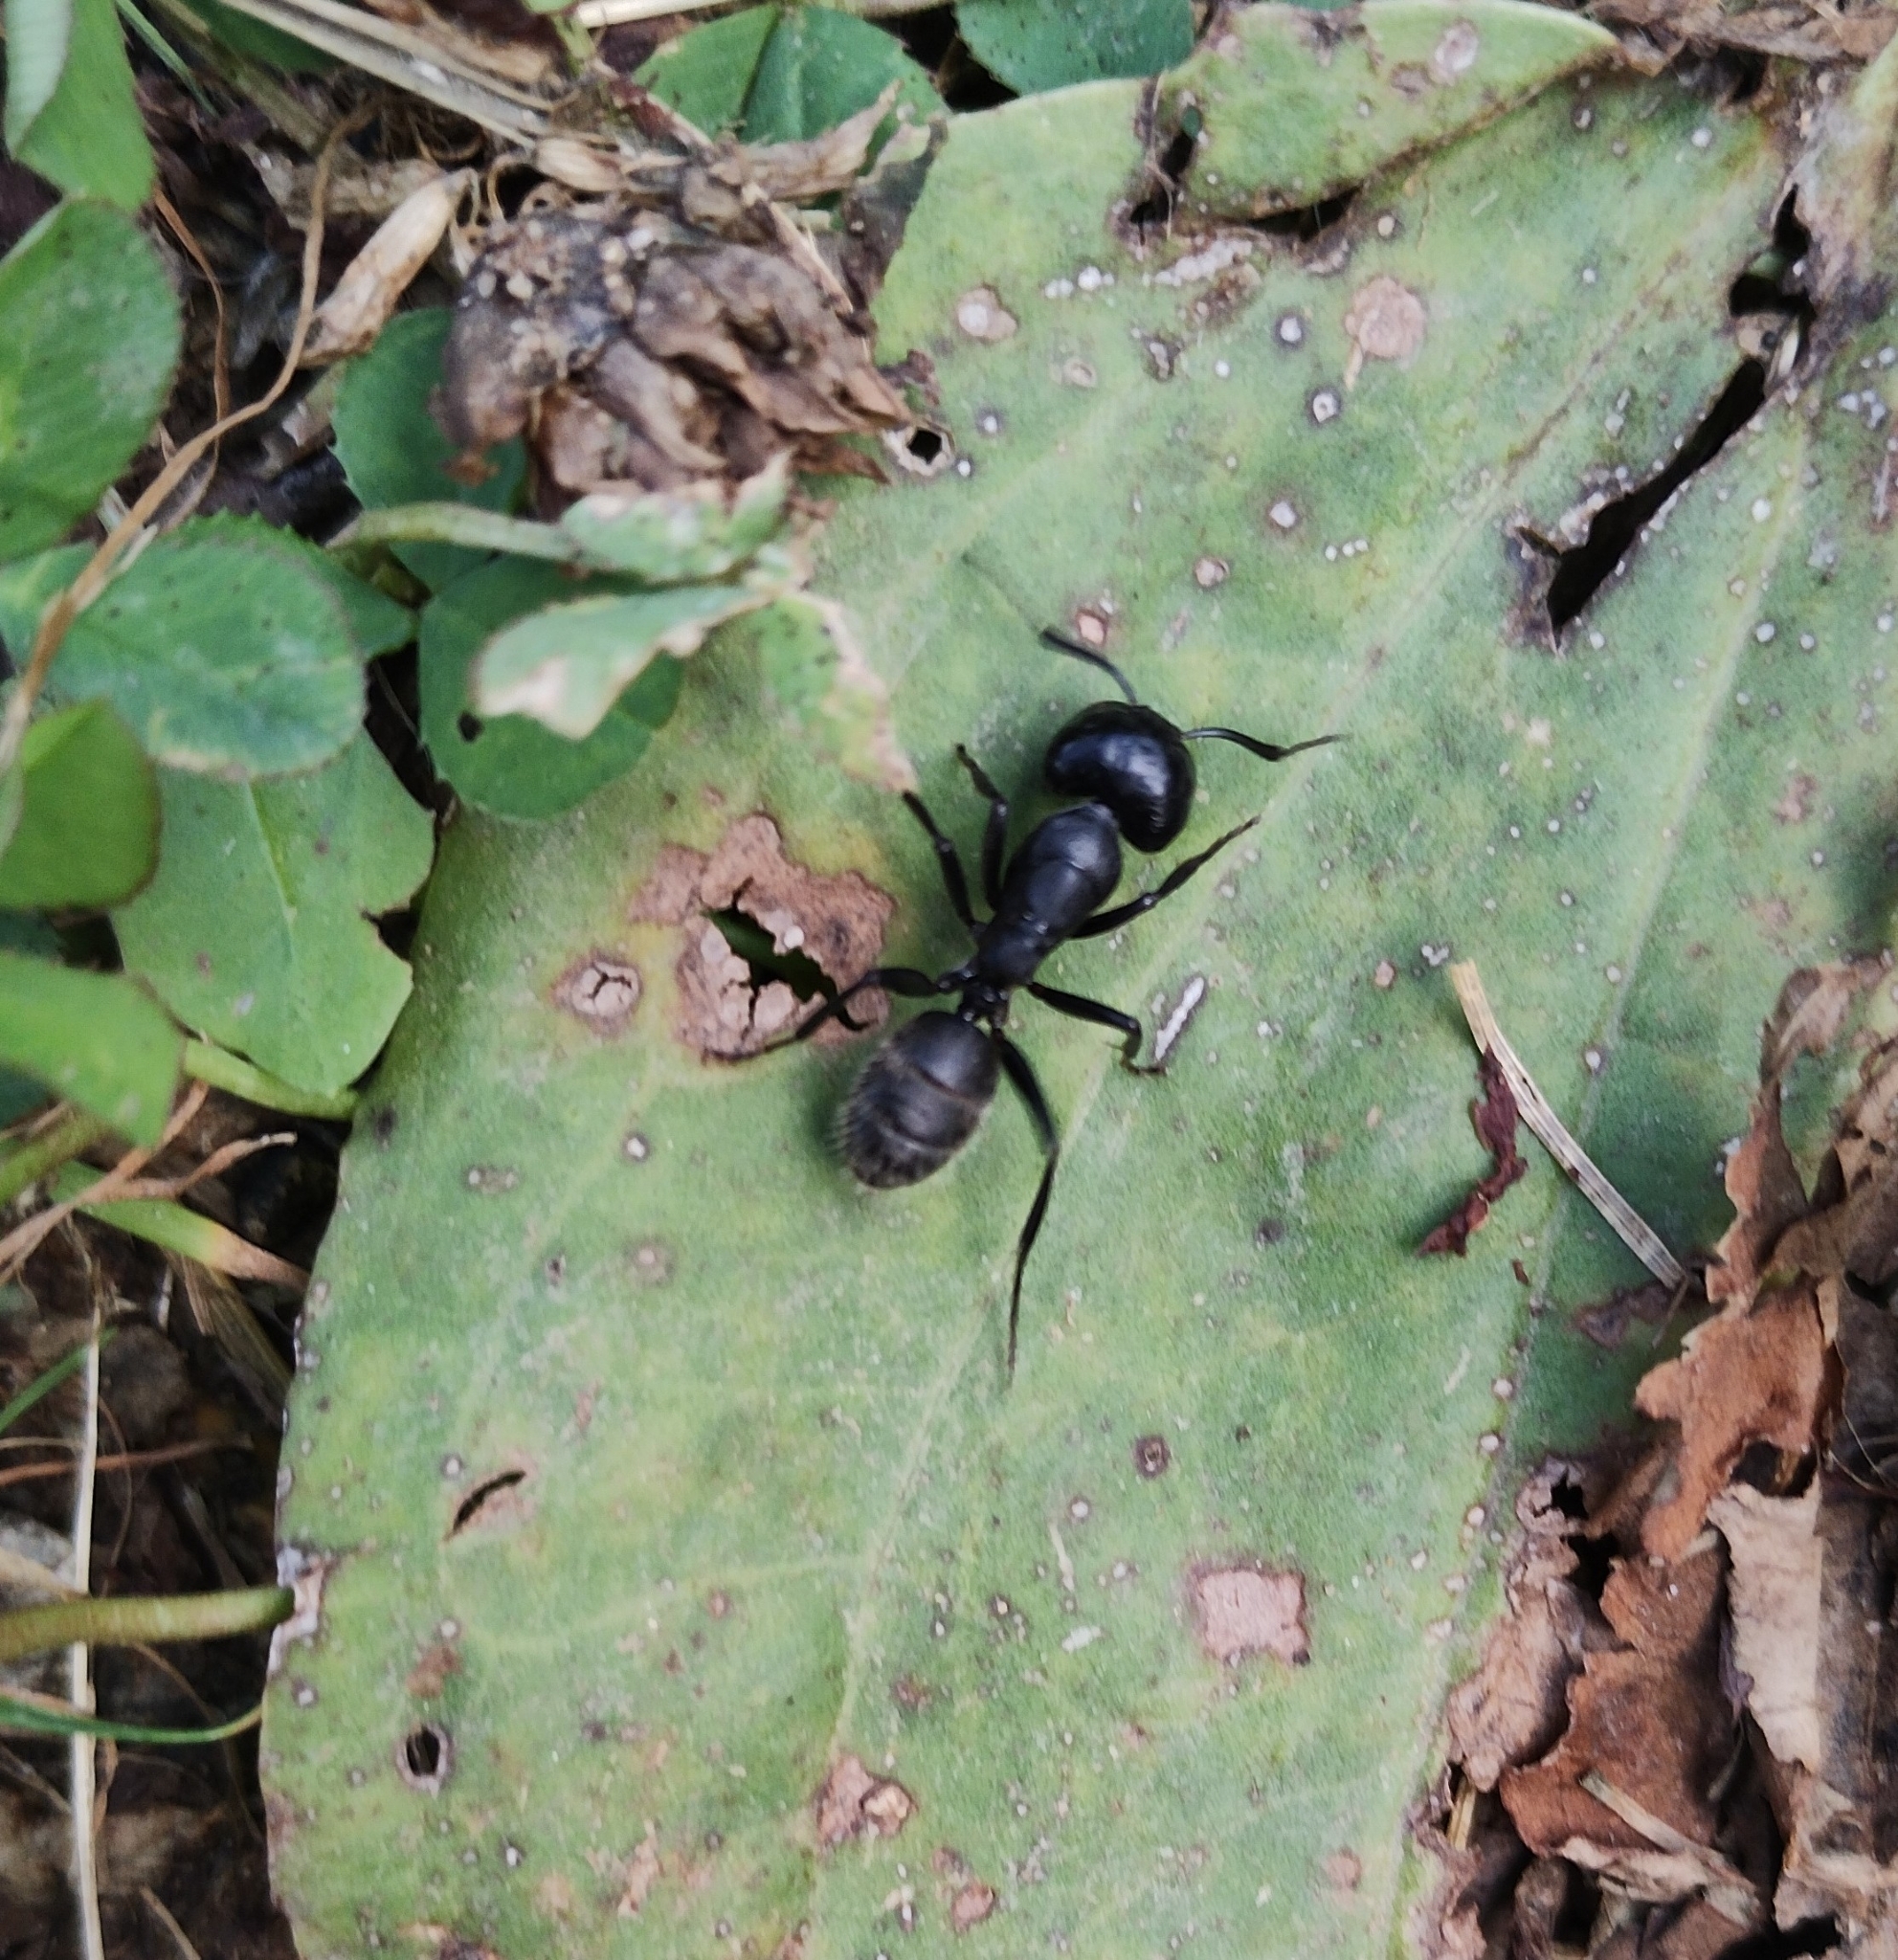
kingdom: Animalia
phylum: Arthropoda
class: Insecta
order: Hymenoptera
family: Formicidae
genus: Camponotus
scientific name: Camponotus vagus
